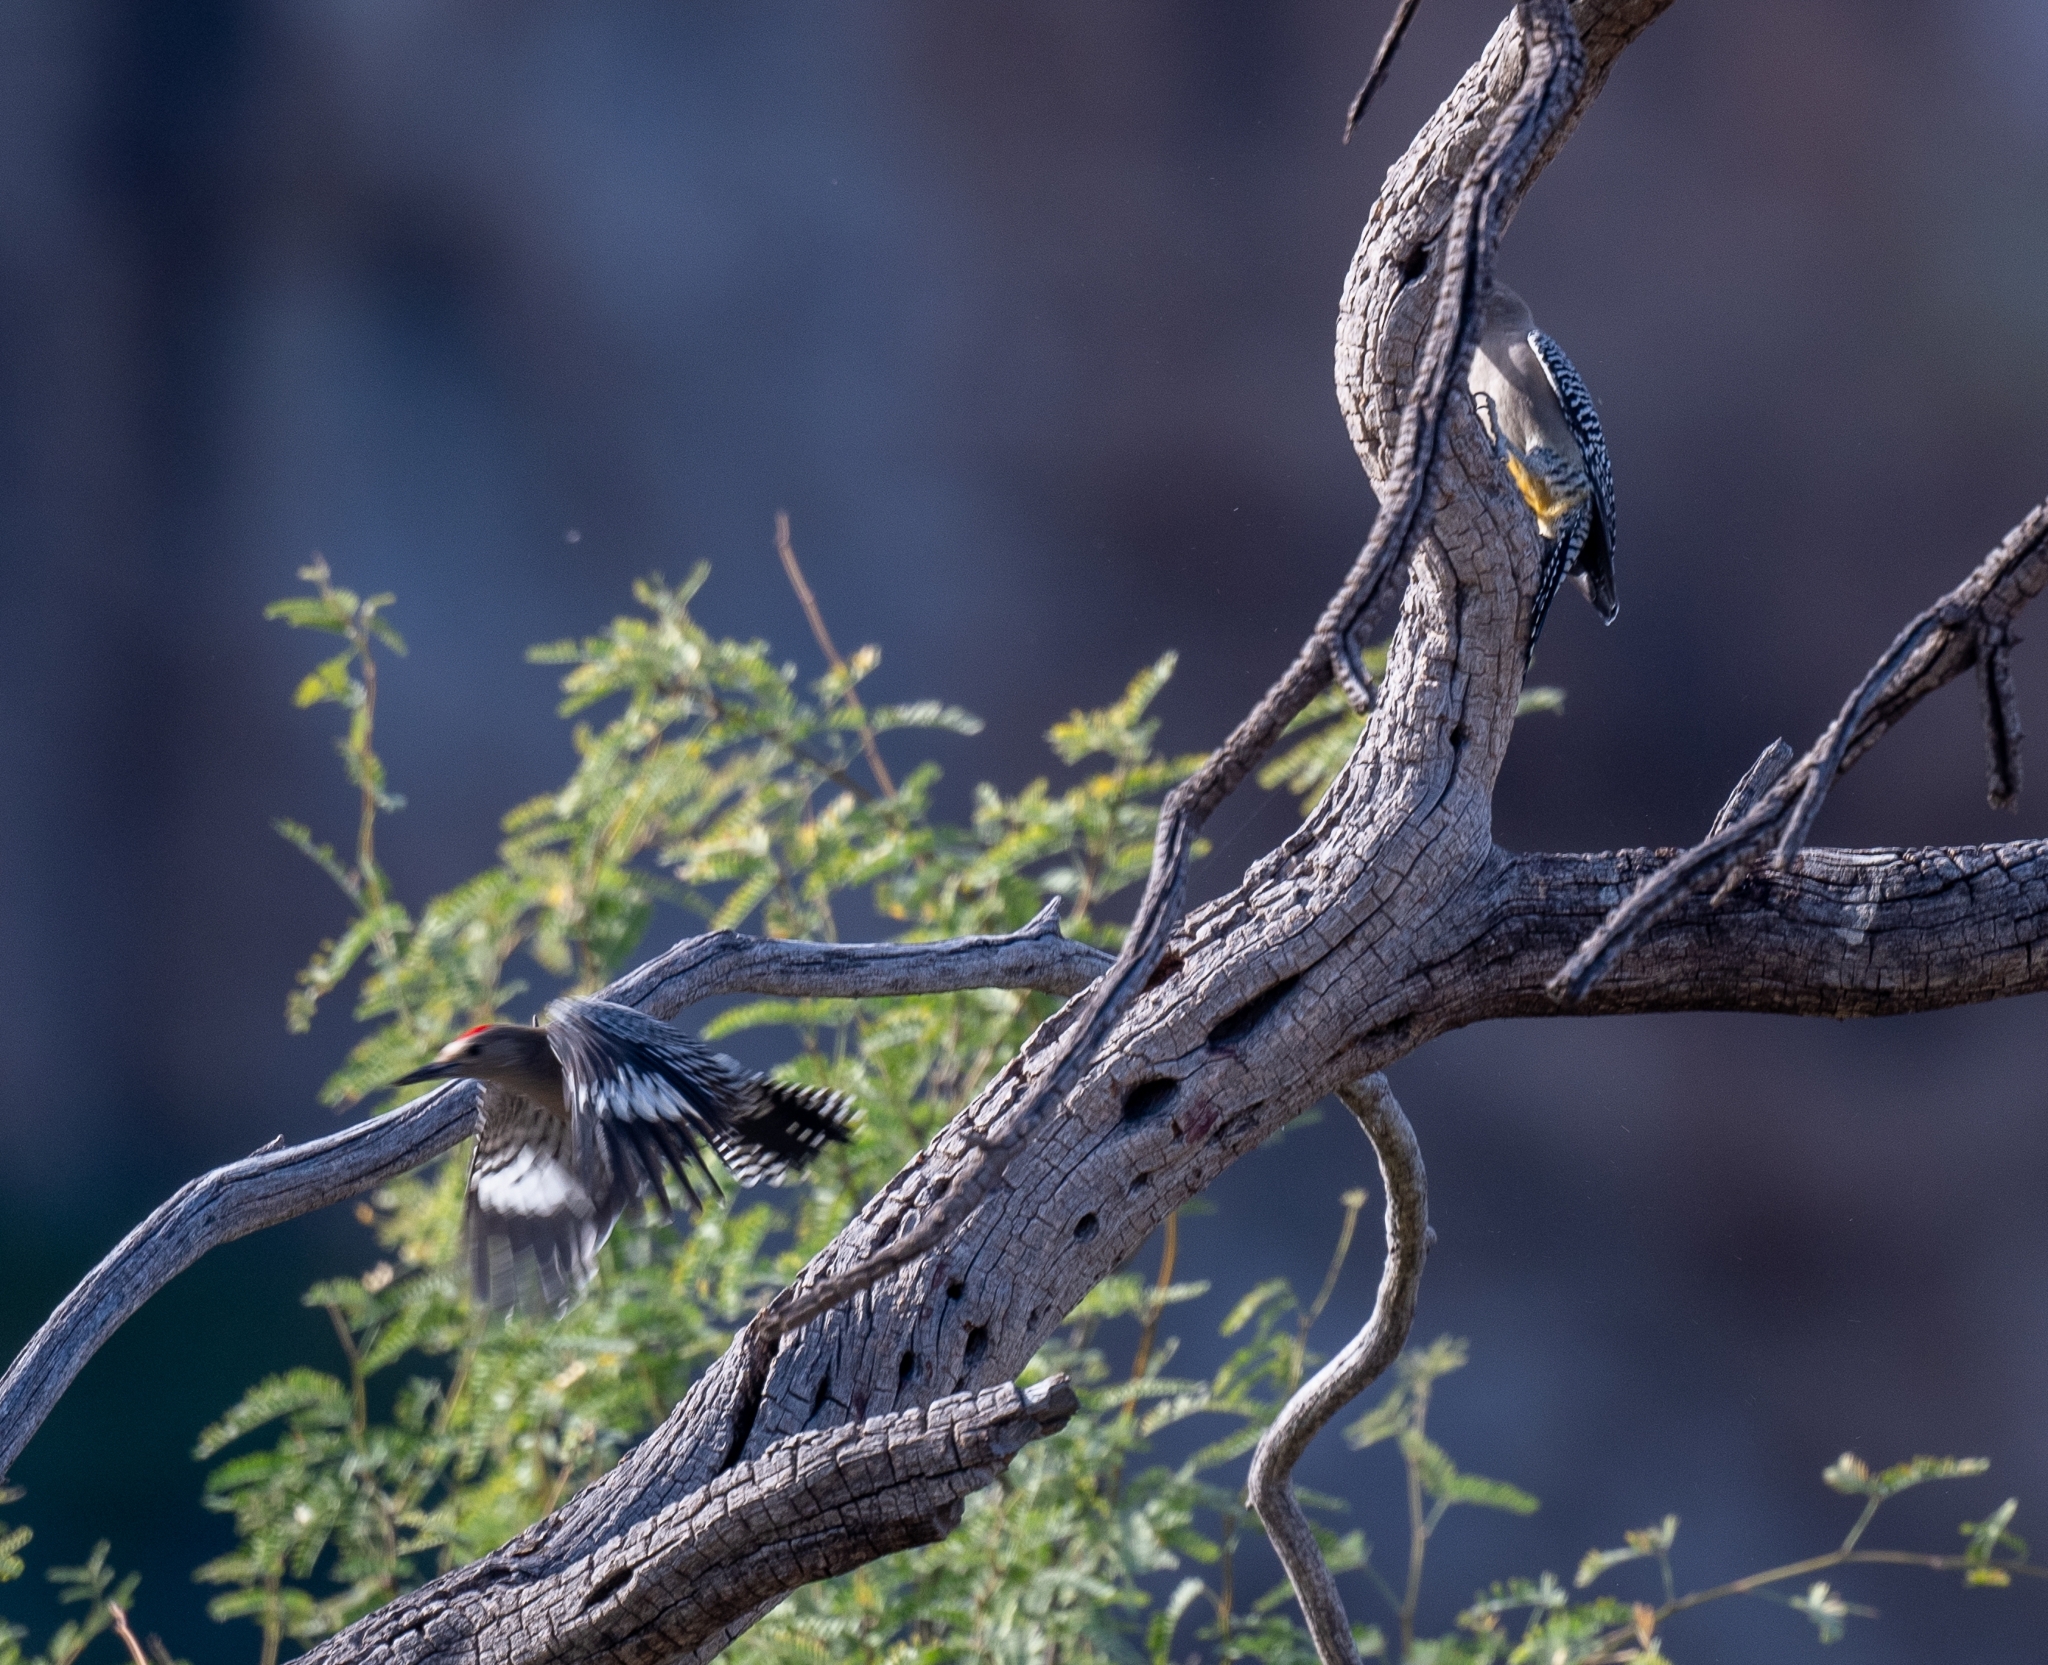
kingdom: Animalia
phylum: Chordata
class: Aves
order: Piciformes
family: Picidae
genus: Melanerpes
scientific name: Melanerpes uropygialis
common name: Gila woodpecker
